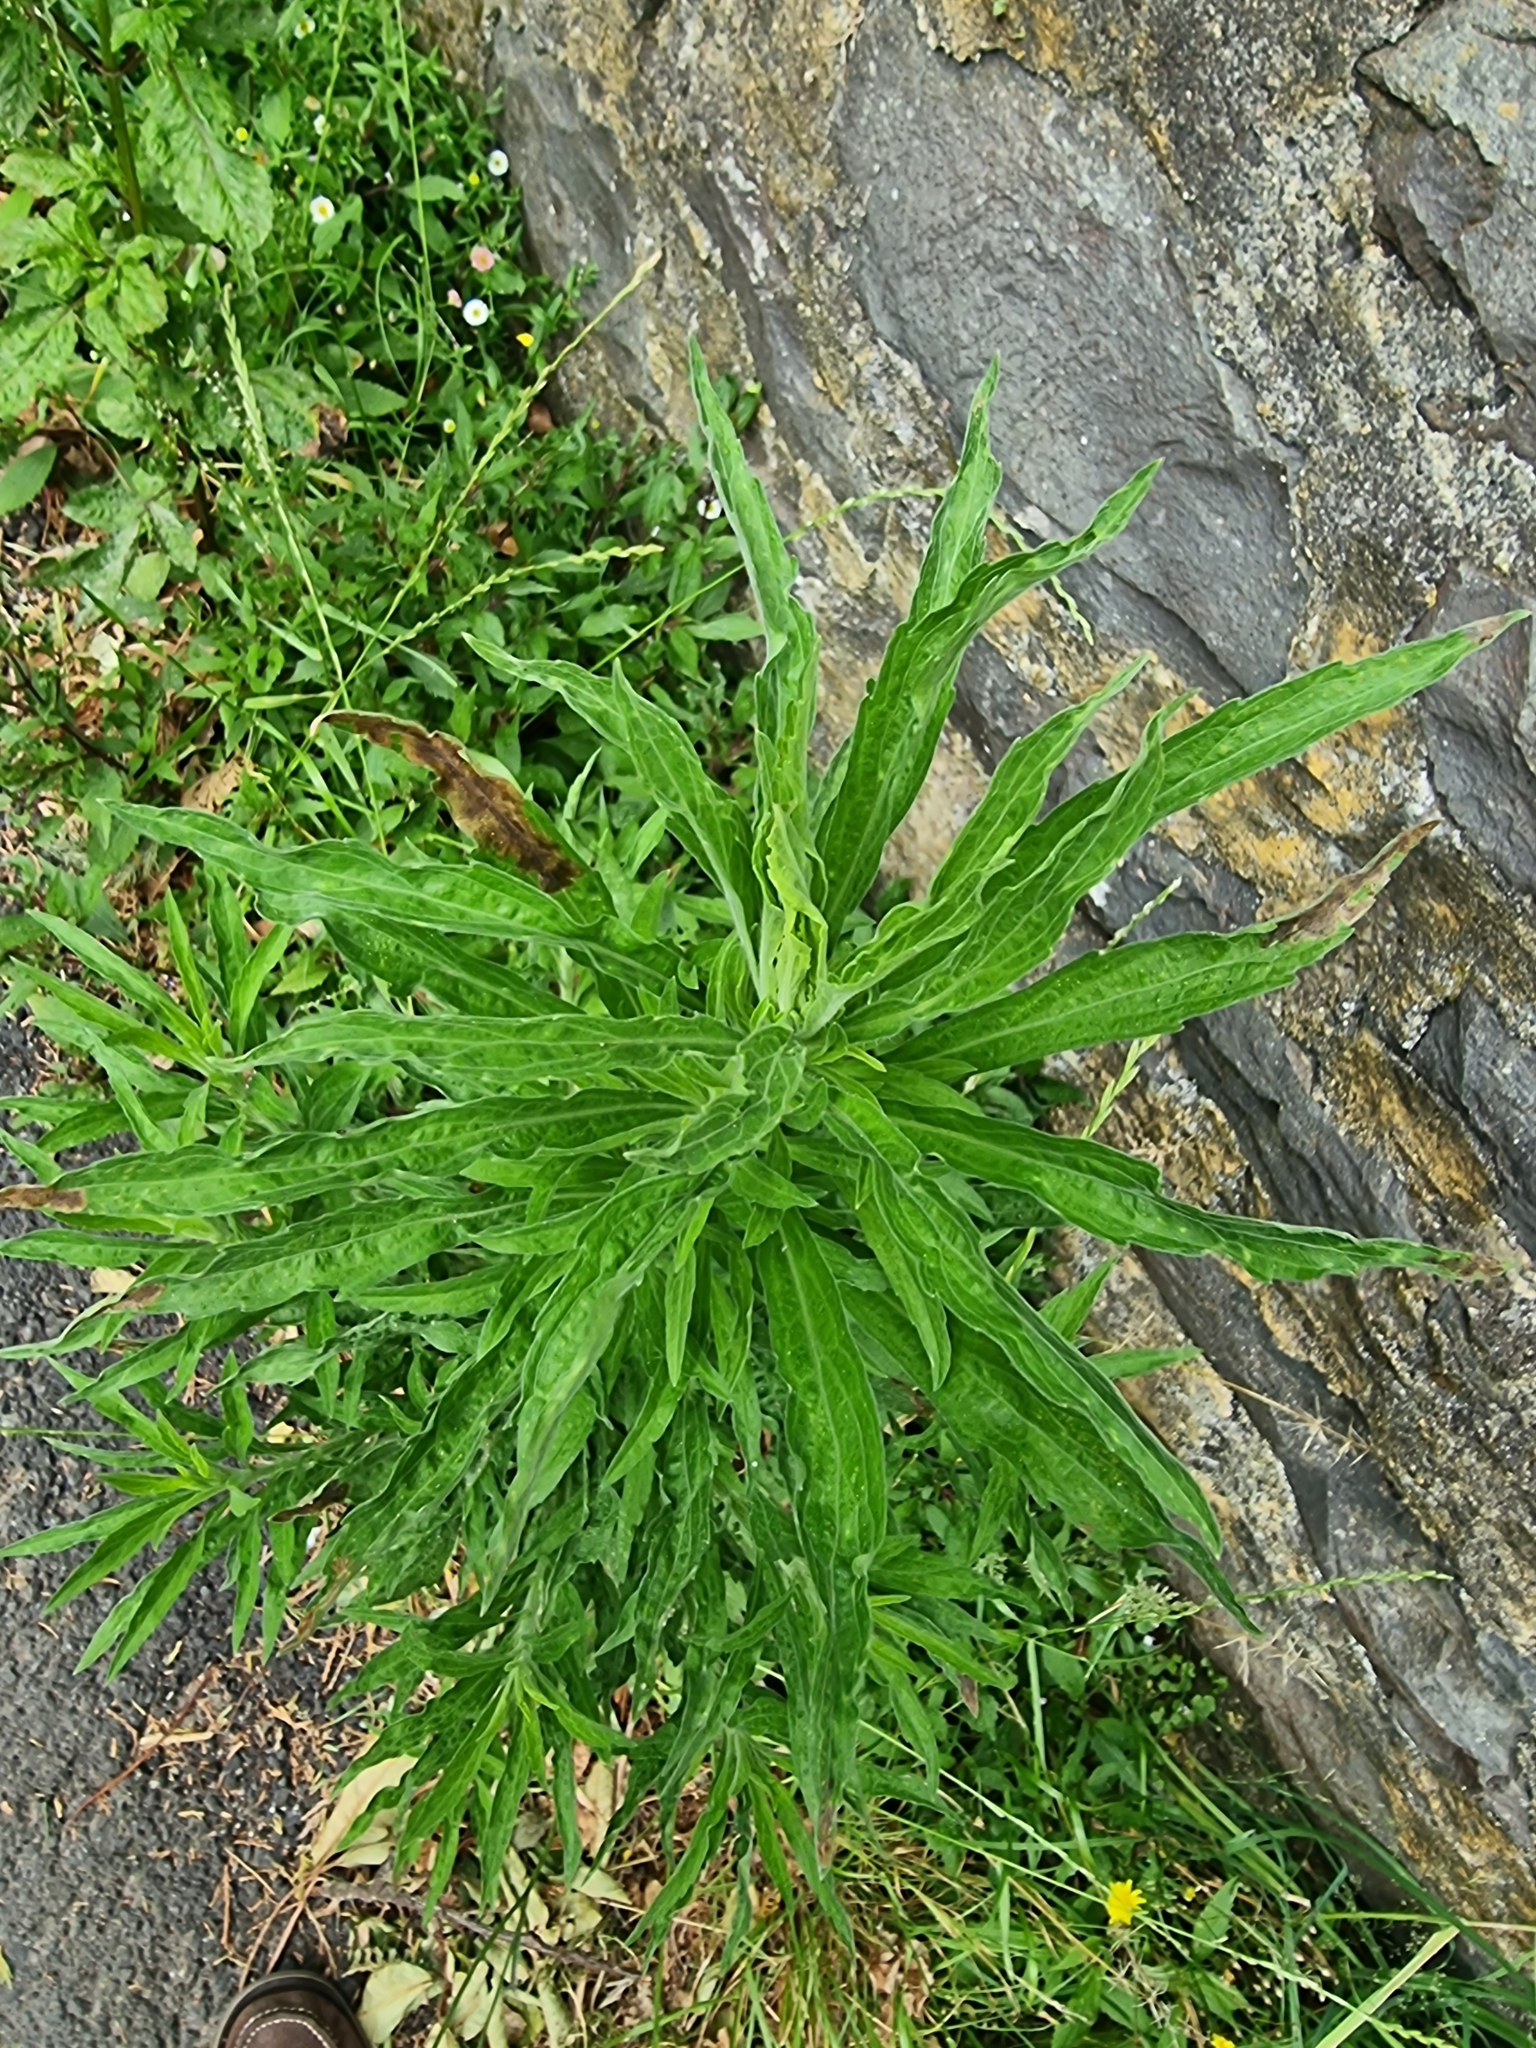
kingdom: Plantae
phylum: Tracheophyta
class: Magnoliopsida
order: Asterales
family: Asteraceae
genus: Erigeron
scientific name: Erigeron sumatrensis
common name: Daisy
